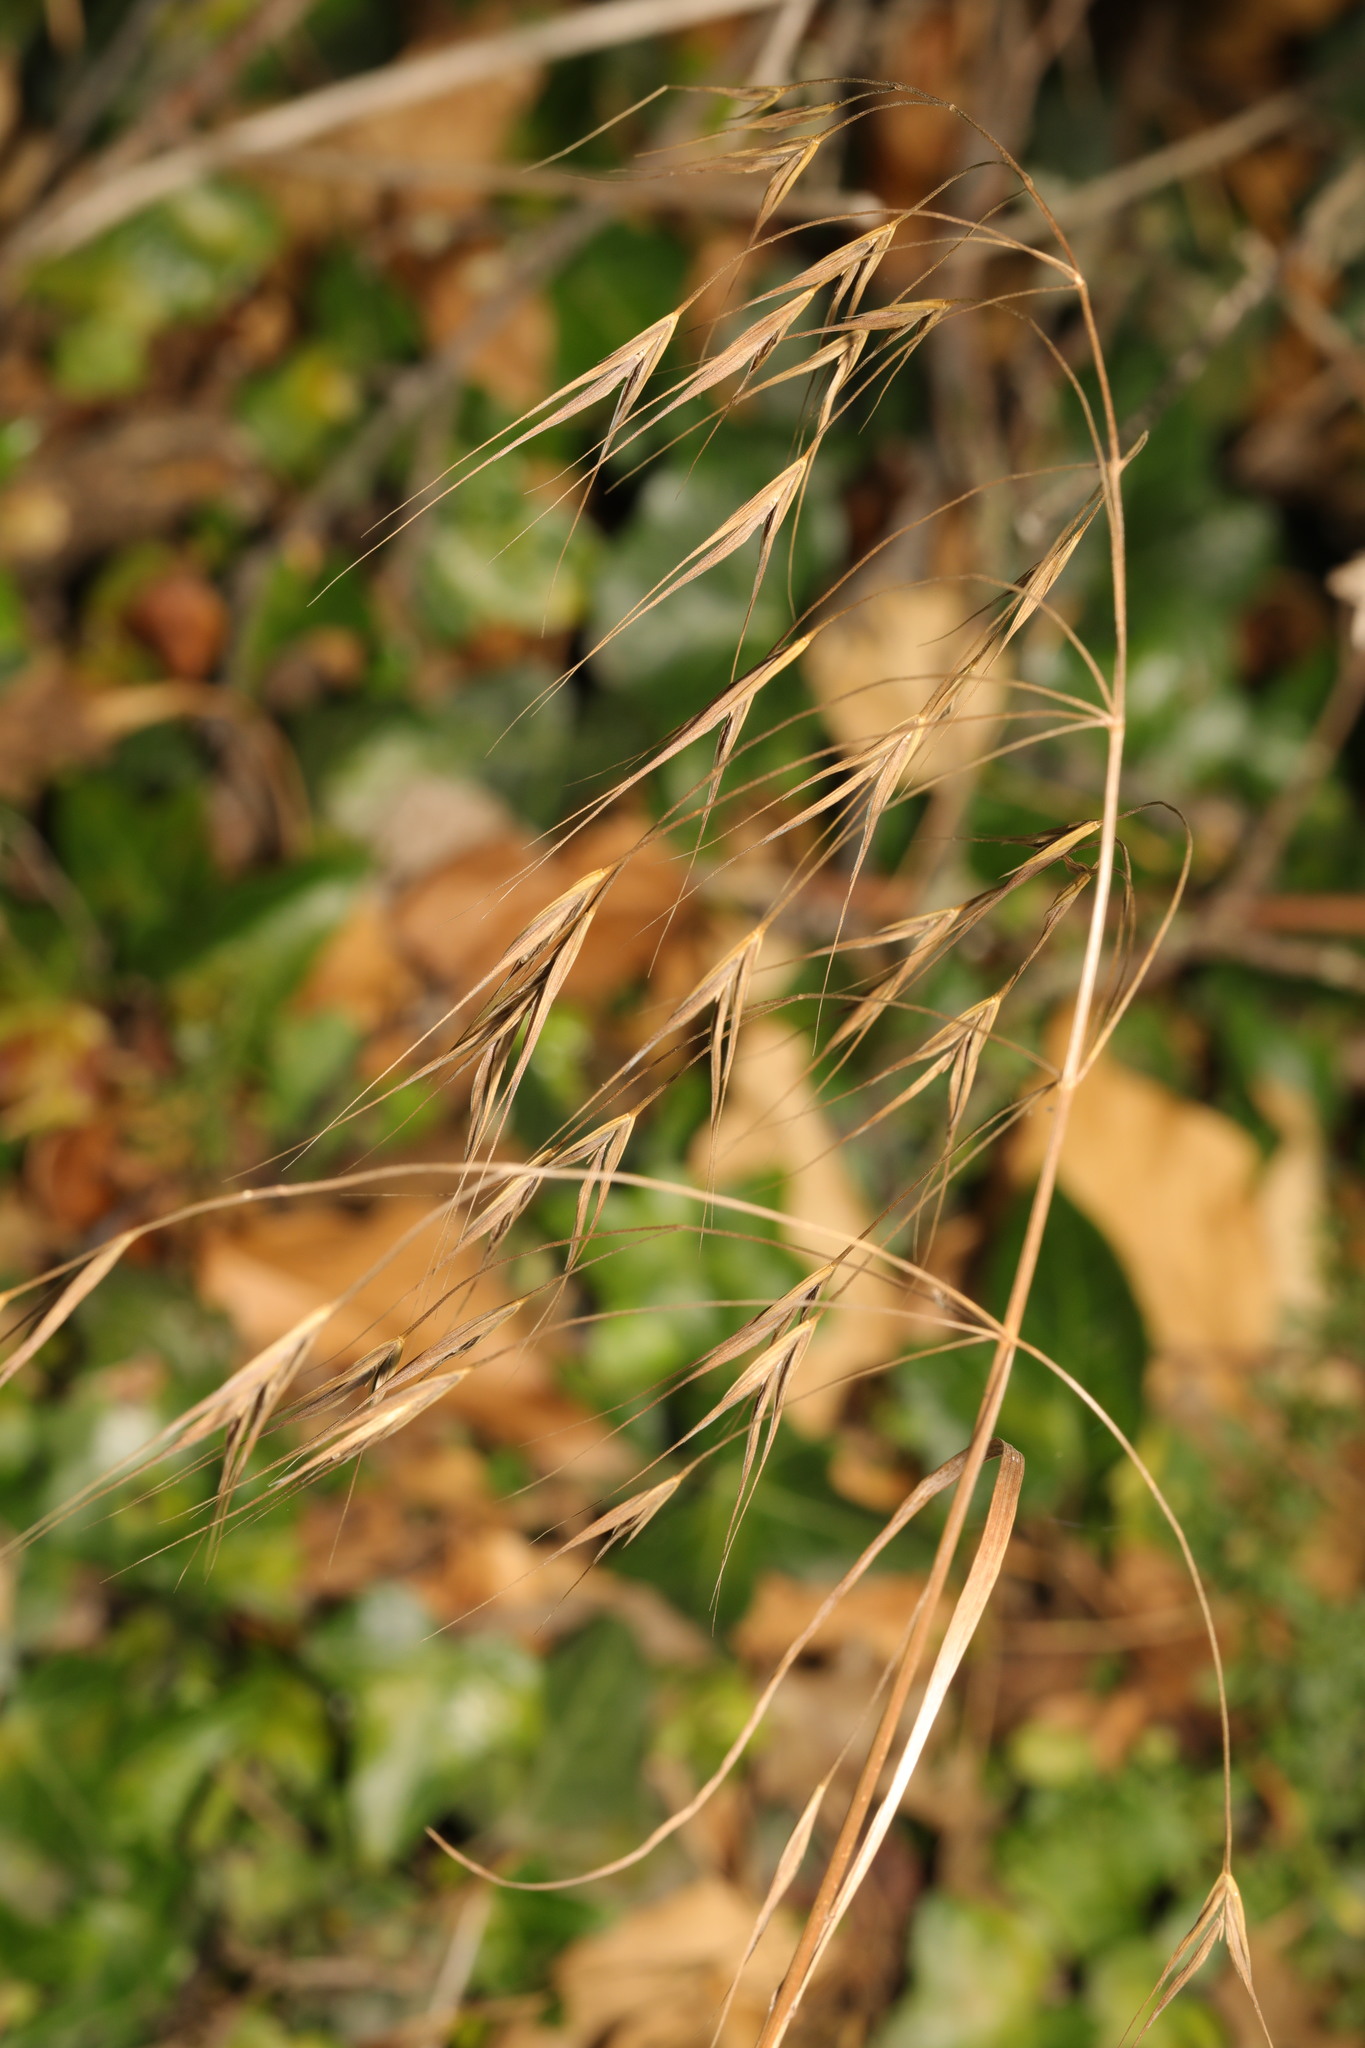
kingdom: Plantae
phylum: Tracheophyta
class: Liliopsida
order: Poales
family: Poaceae
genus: Bromus
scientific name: Bromus sterilis
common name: Poverty brome
